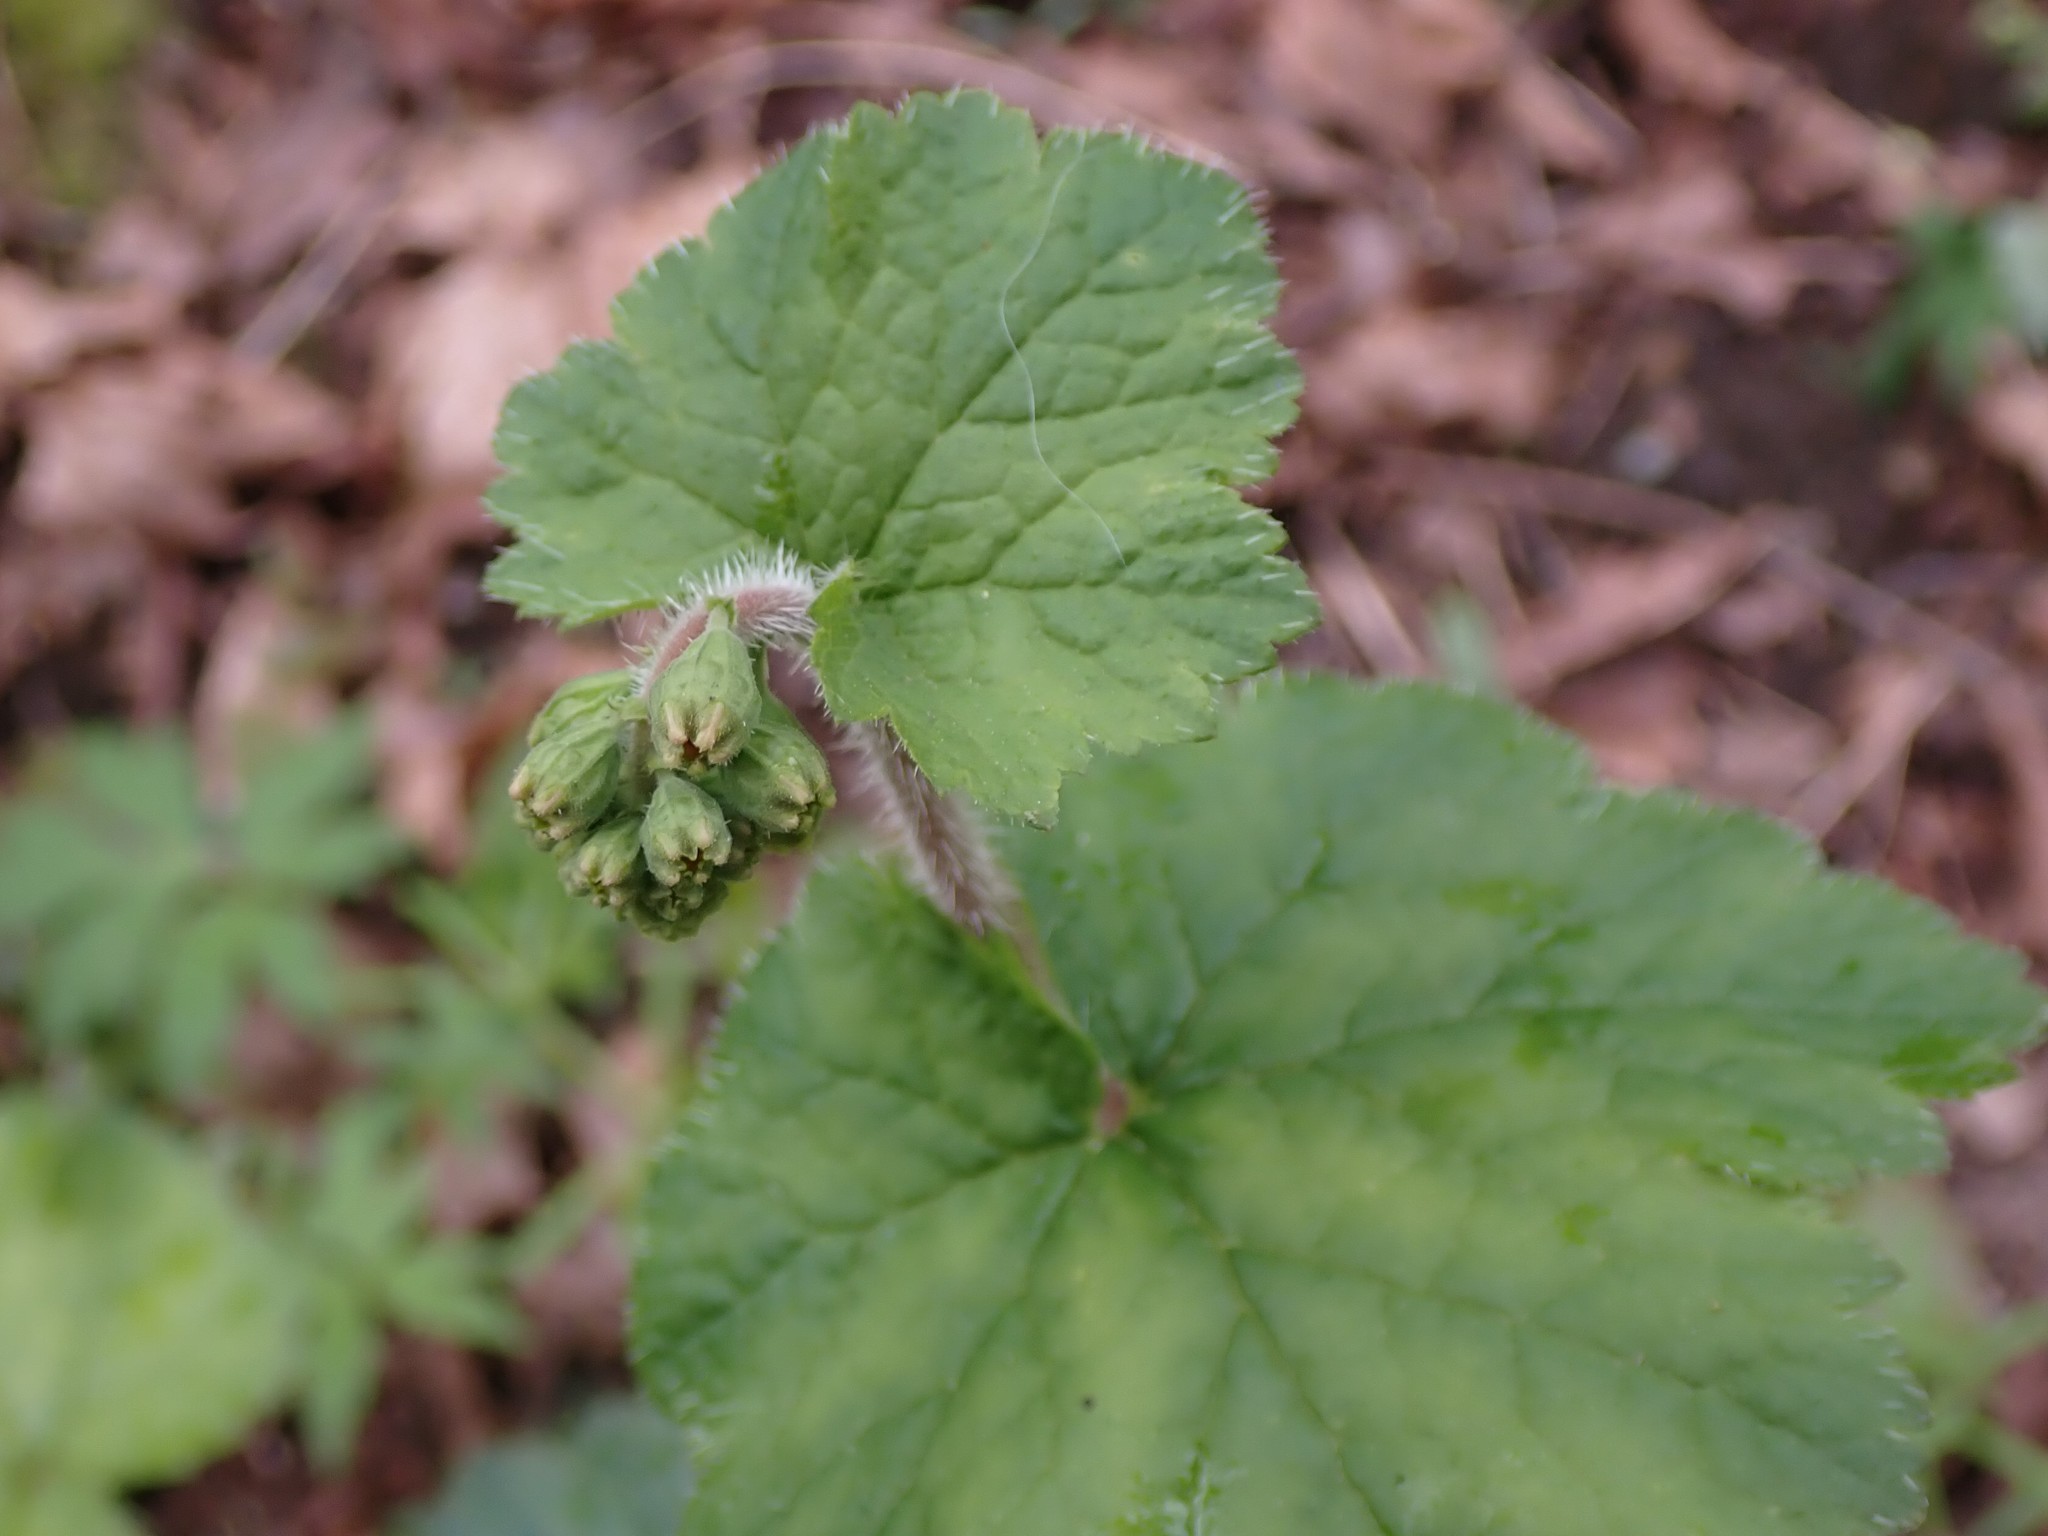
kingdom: Plantae
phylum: Tracheophyta
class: Magnoliopsida
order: Saxifragales
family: Saxifragaceae
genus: Tellima
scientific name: Tellima grandiflora
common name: Fringecups
